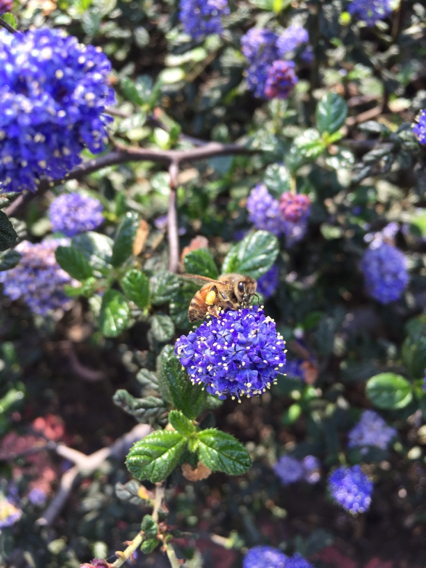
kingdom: Animalia
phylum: Arthropoda
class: Insecta
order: Hymenoptera
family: Apidae
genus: Apis
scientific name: Apis mellifera
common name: Honey bee
